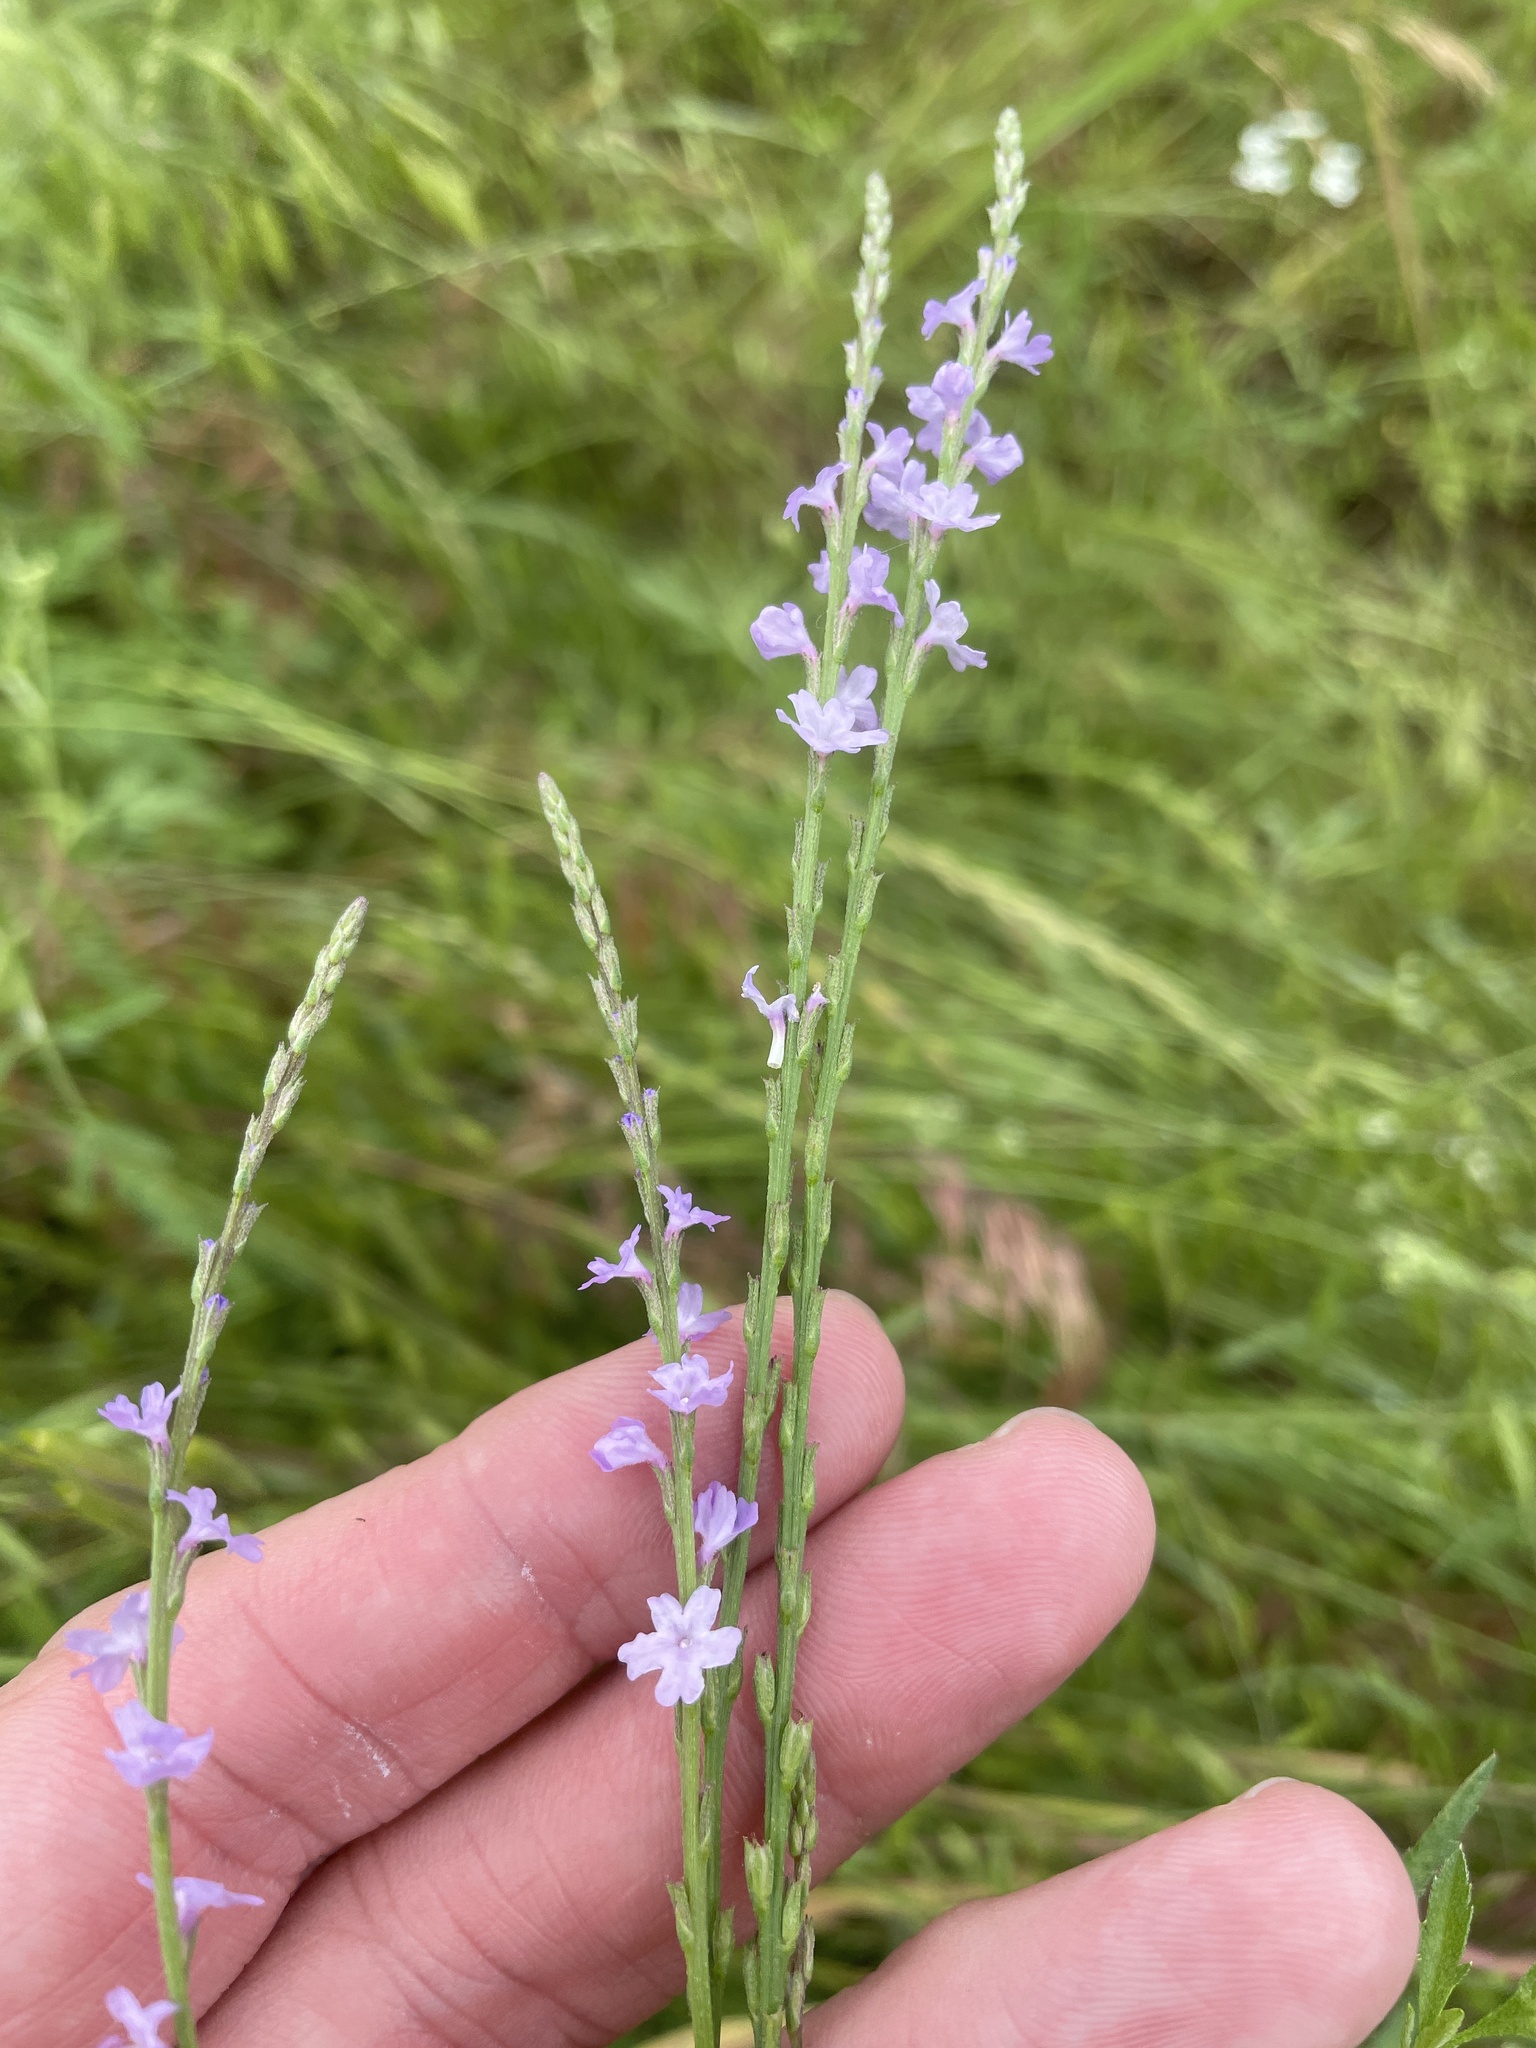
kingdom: Plantae
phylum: Tracheophyta
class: Magnoliopsida
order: Lamiales
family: Verbenaceae
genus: Verbena
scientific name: Verbena halei
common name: Texas vervain
